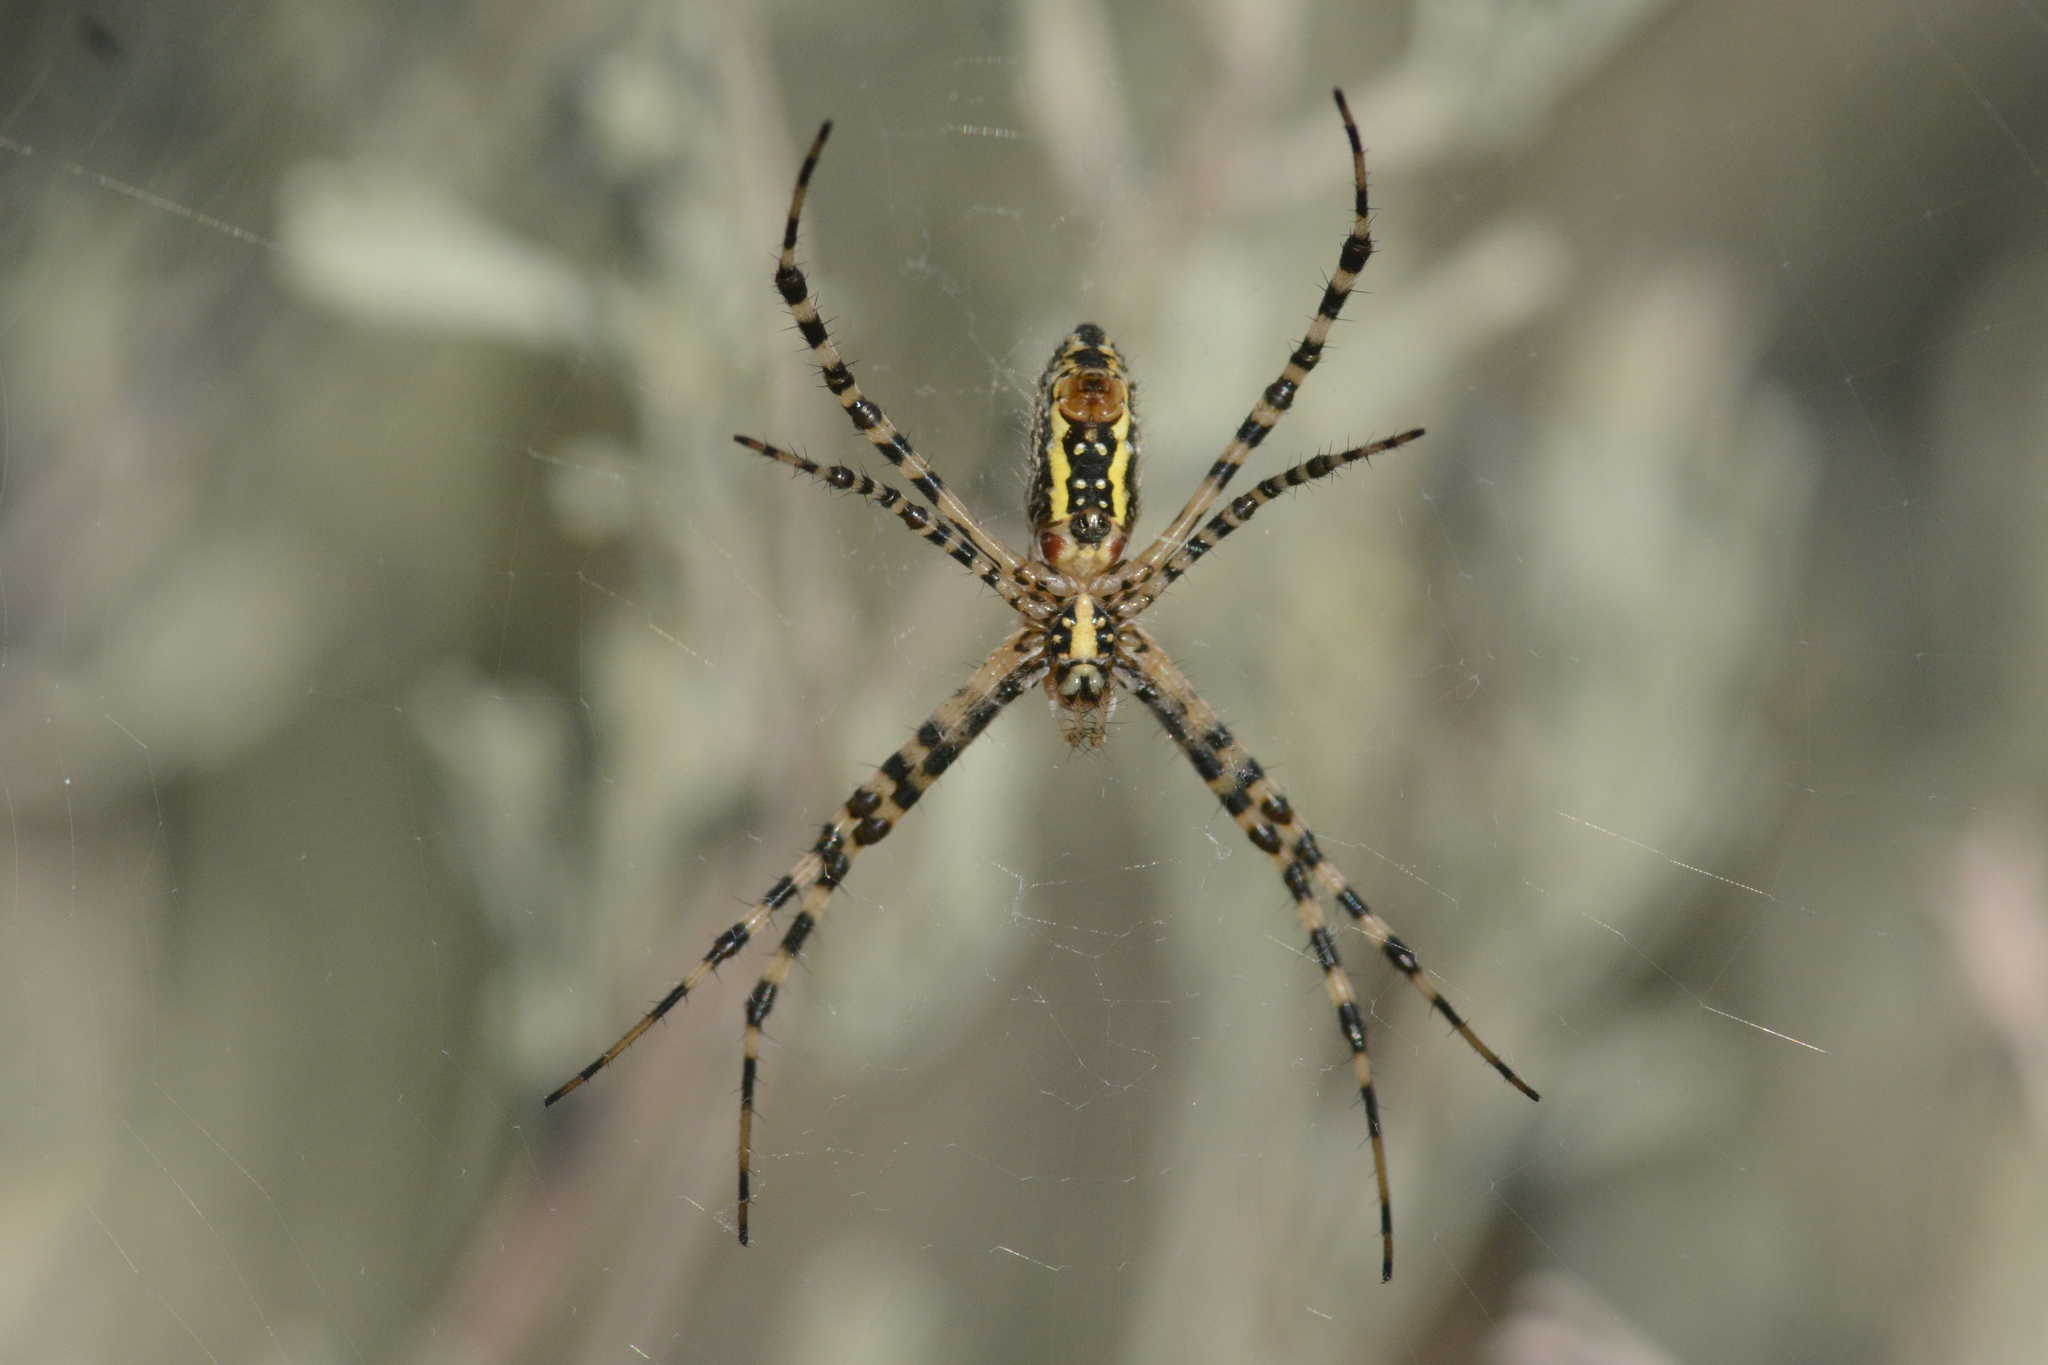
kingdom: Animalia
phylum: Arthropoda
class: Arachnida
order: Araneae
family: Araneidae
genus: Argiope
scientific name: Argiope trifasciata
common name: Banded garden spider
